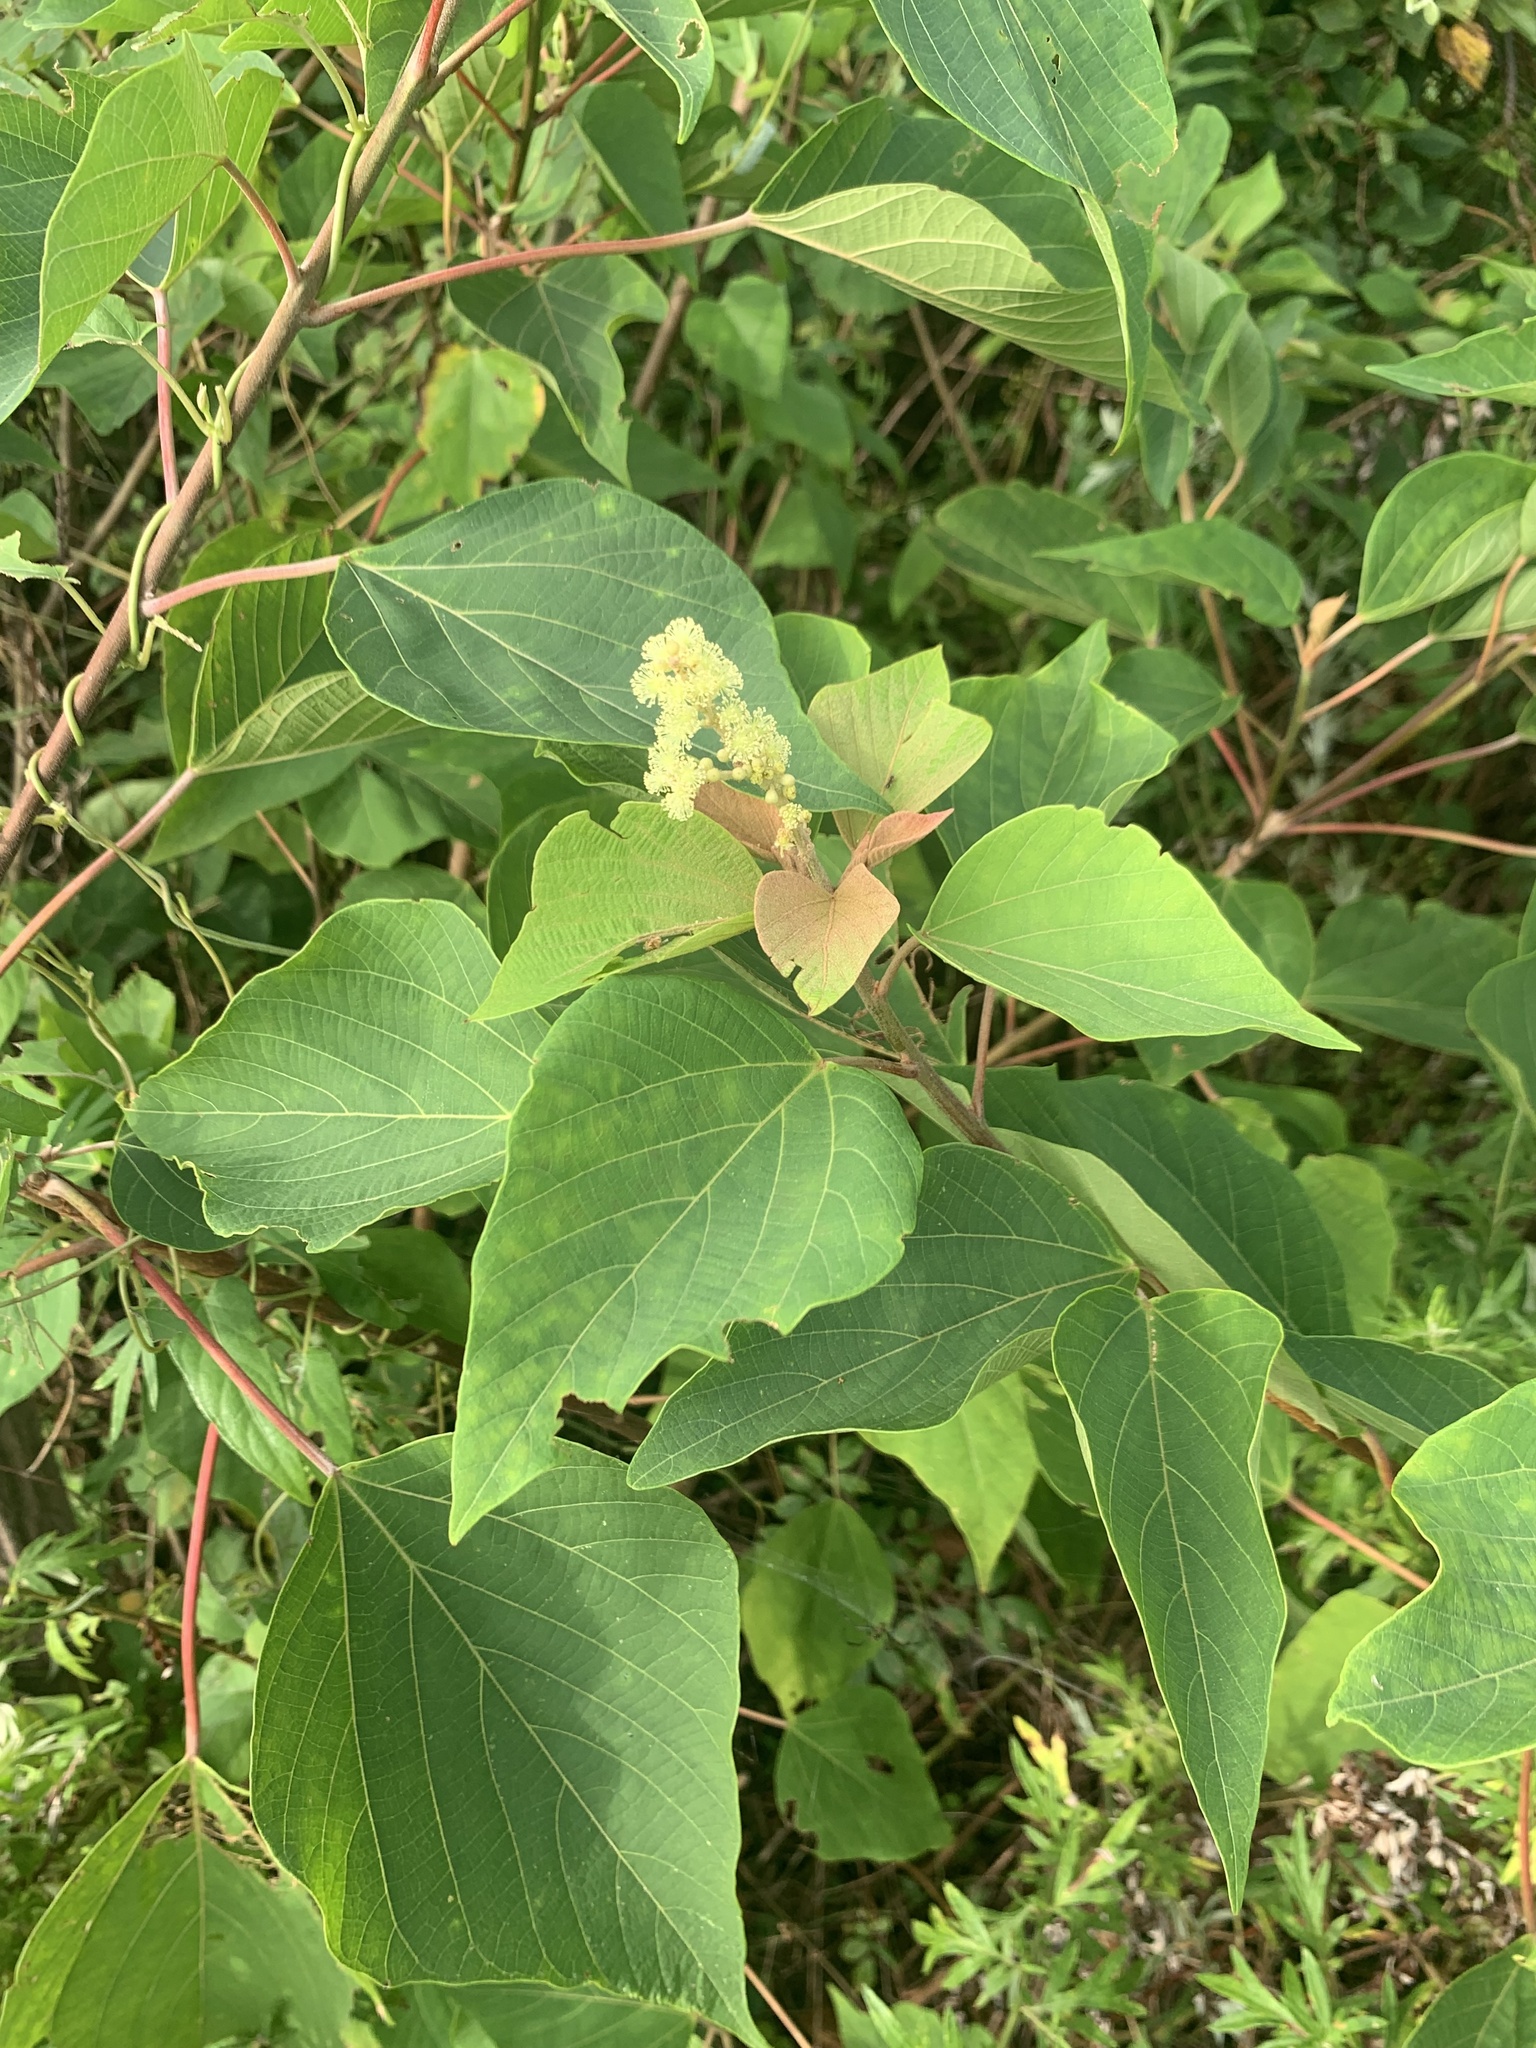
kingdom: Plantae
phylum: Tracheophyta
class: Magnoliopsida
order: Malpighiales
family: Euphorbiaceae
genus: Mallotus
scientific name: Mallotus japonicus
